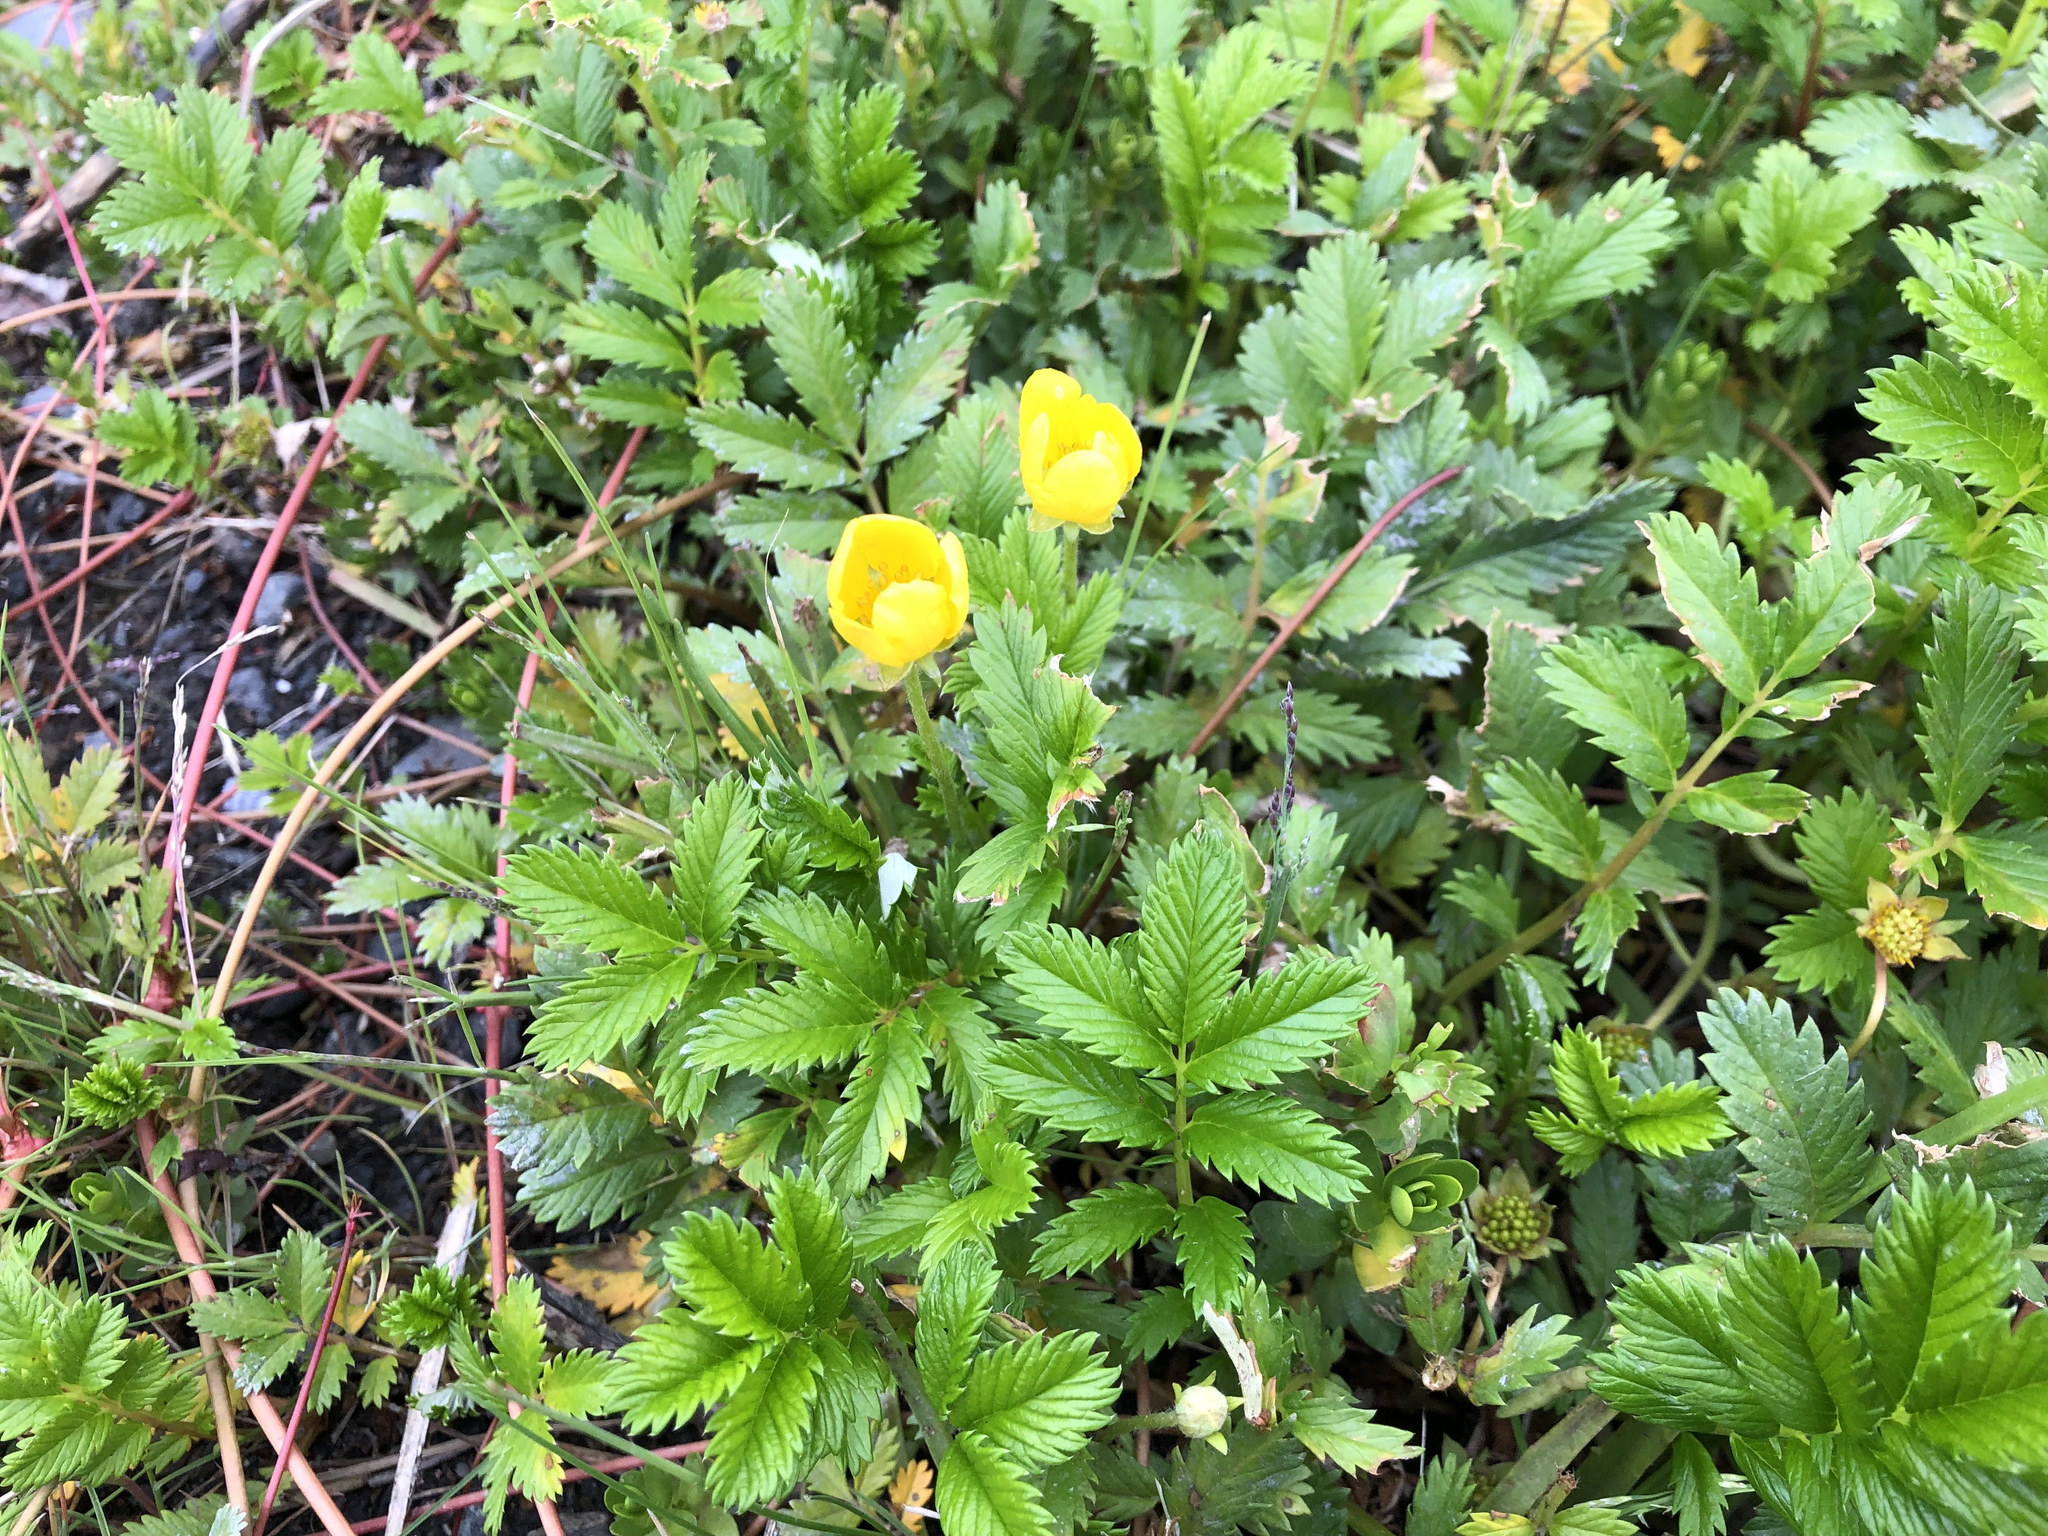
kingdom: Plantae
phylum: Tracheophyta
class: Magnoliopsida
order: Rosales
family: Rosaceae
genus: Argentina
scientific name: Argentina anserina
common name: Common silverweed
